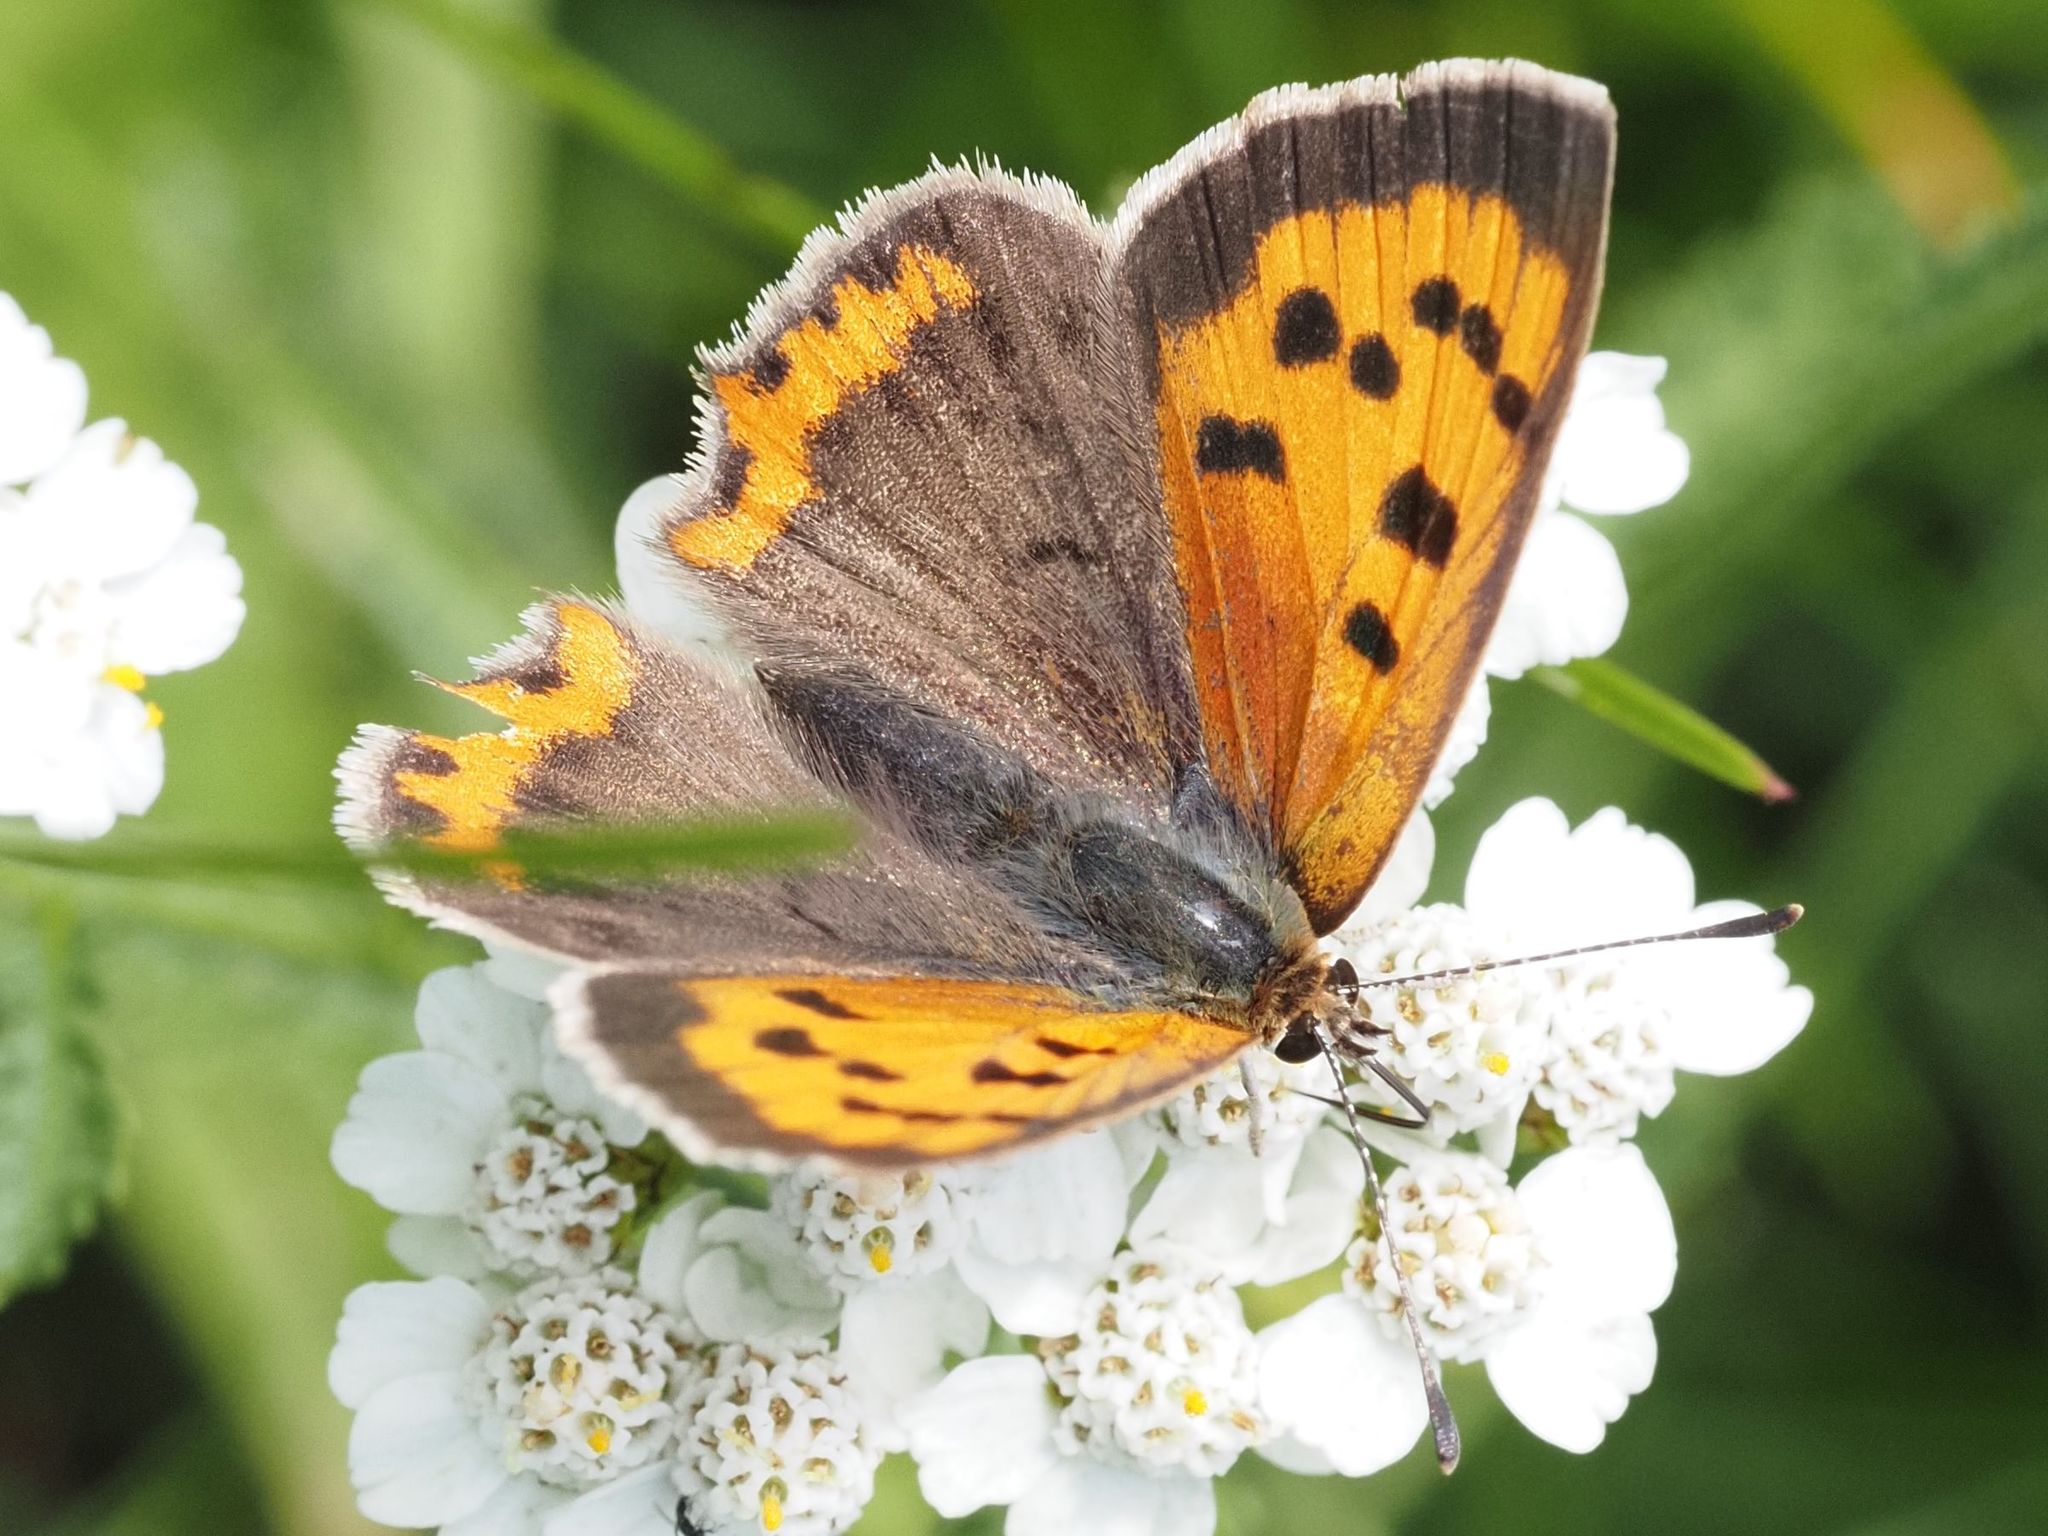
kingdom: Animalia
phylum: Arthropoda
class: Insecta
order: Lepidoptera
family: Lycaenidae
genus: Lycaena
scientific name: Lycaena phlaeas
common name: Small copper
